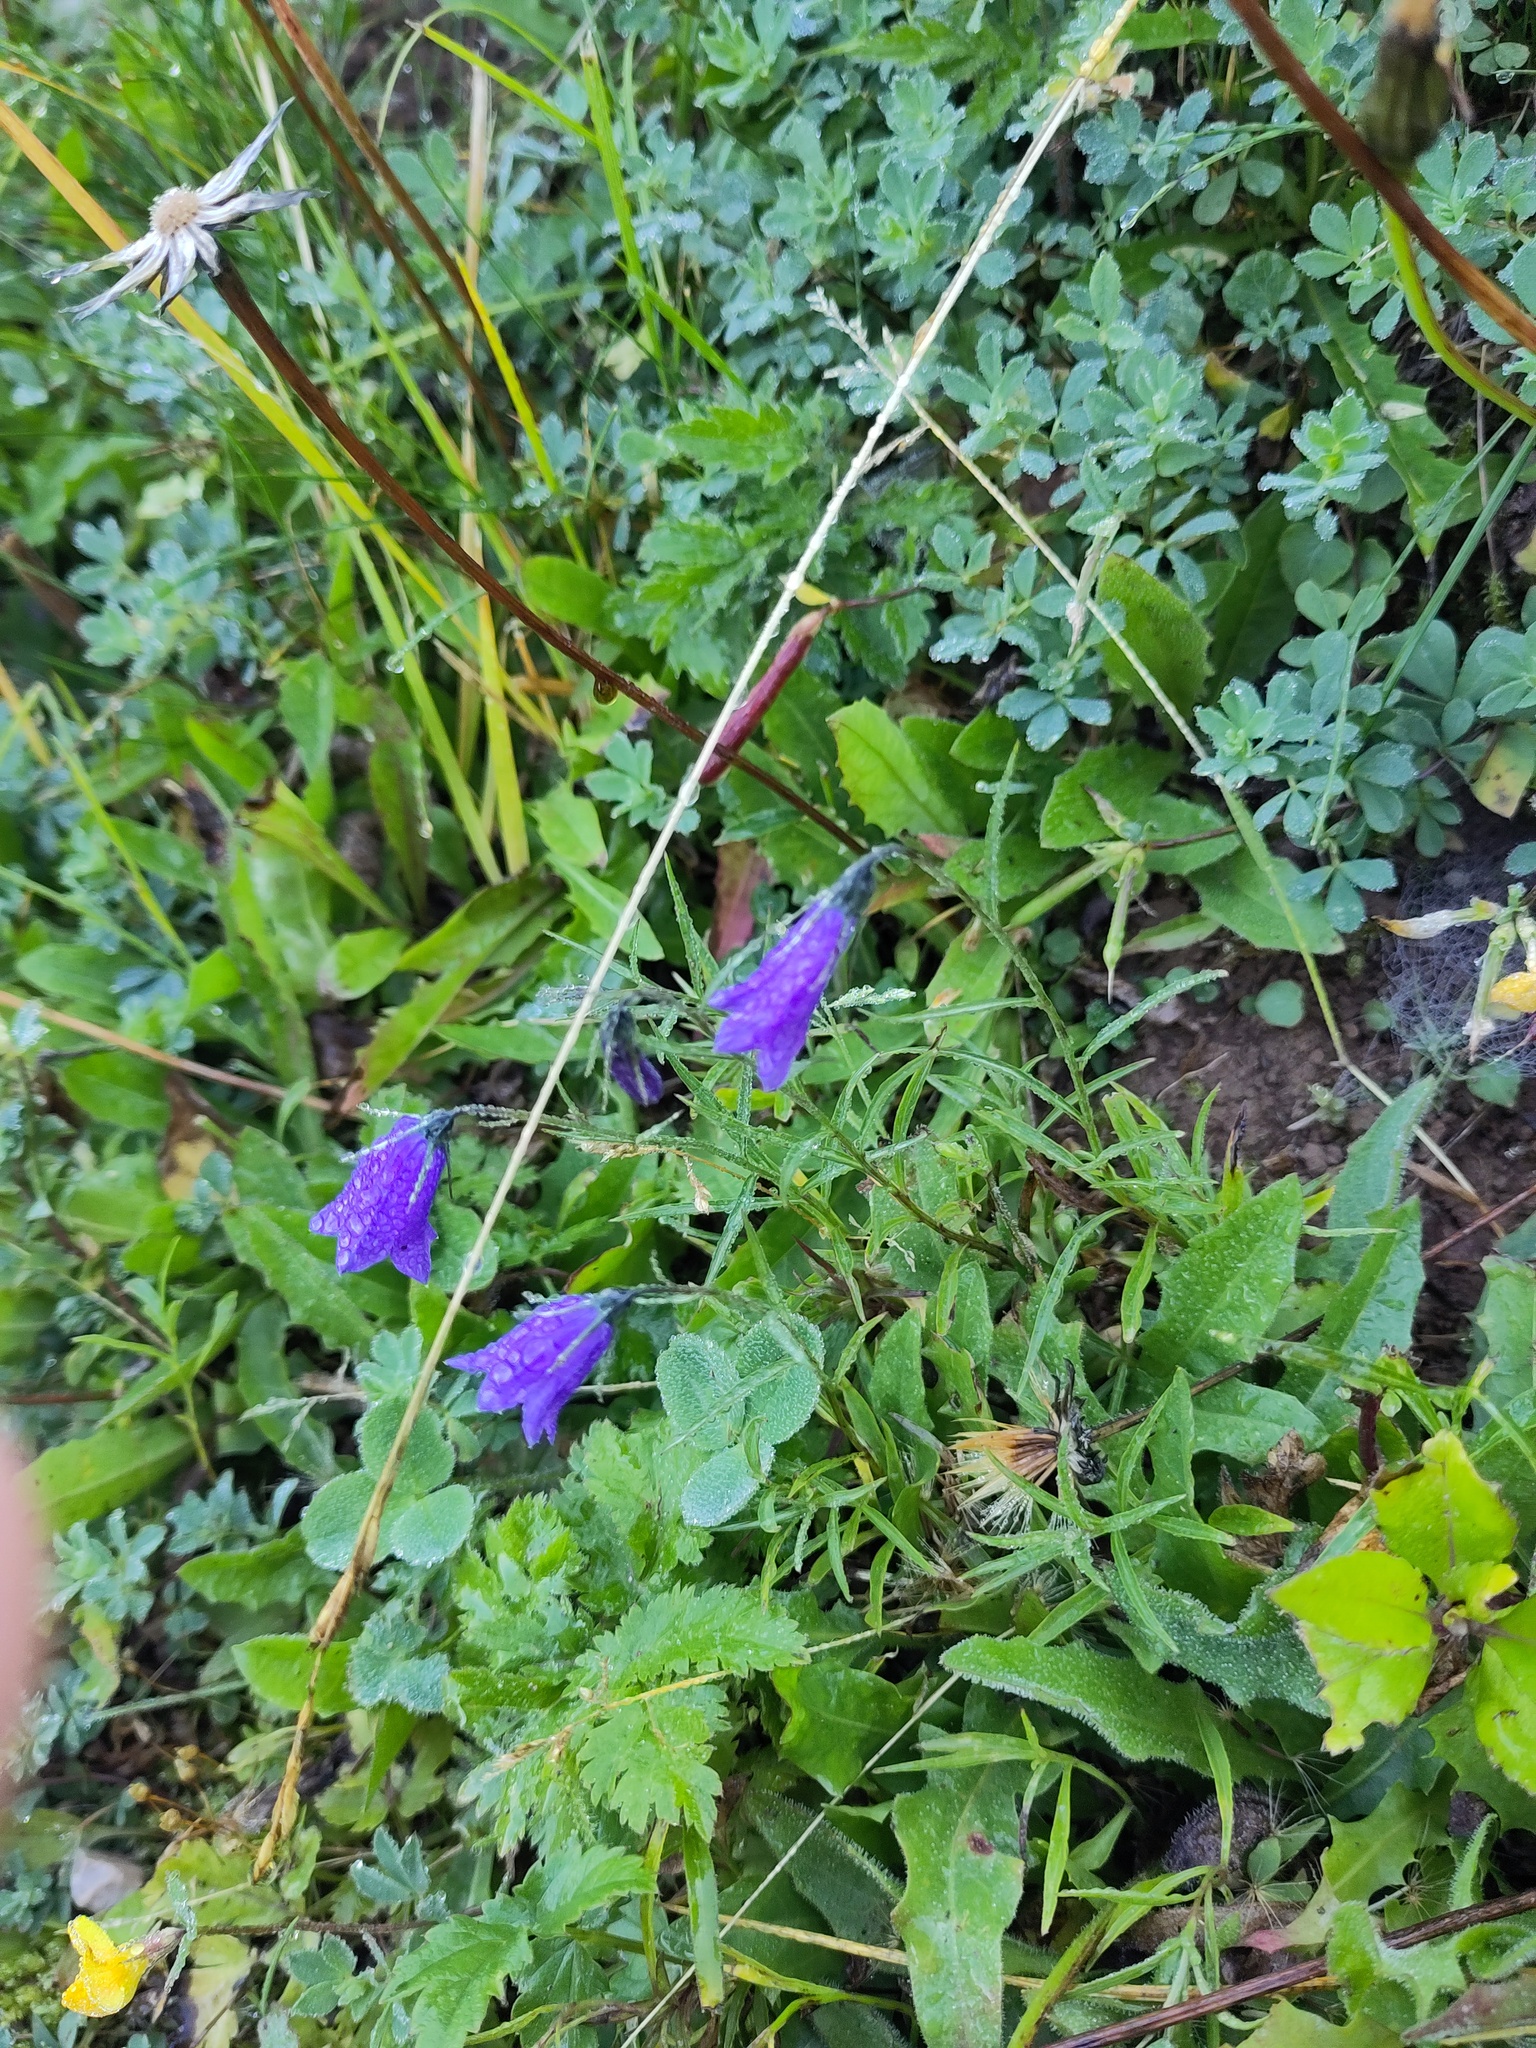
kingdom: Plantae
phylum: Tracheophyta
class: Magnoliopsida
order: Asterales
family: Campanulaceae
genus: Campanula
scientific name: Campanula scheuchzeri
